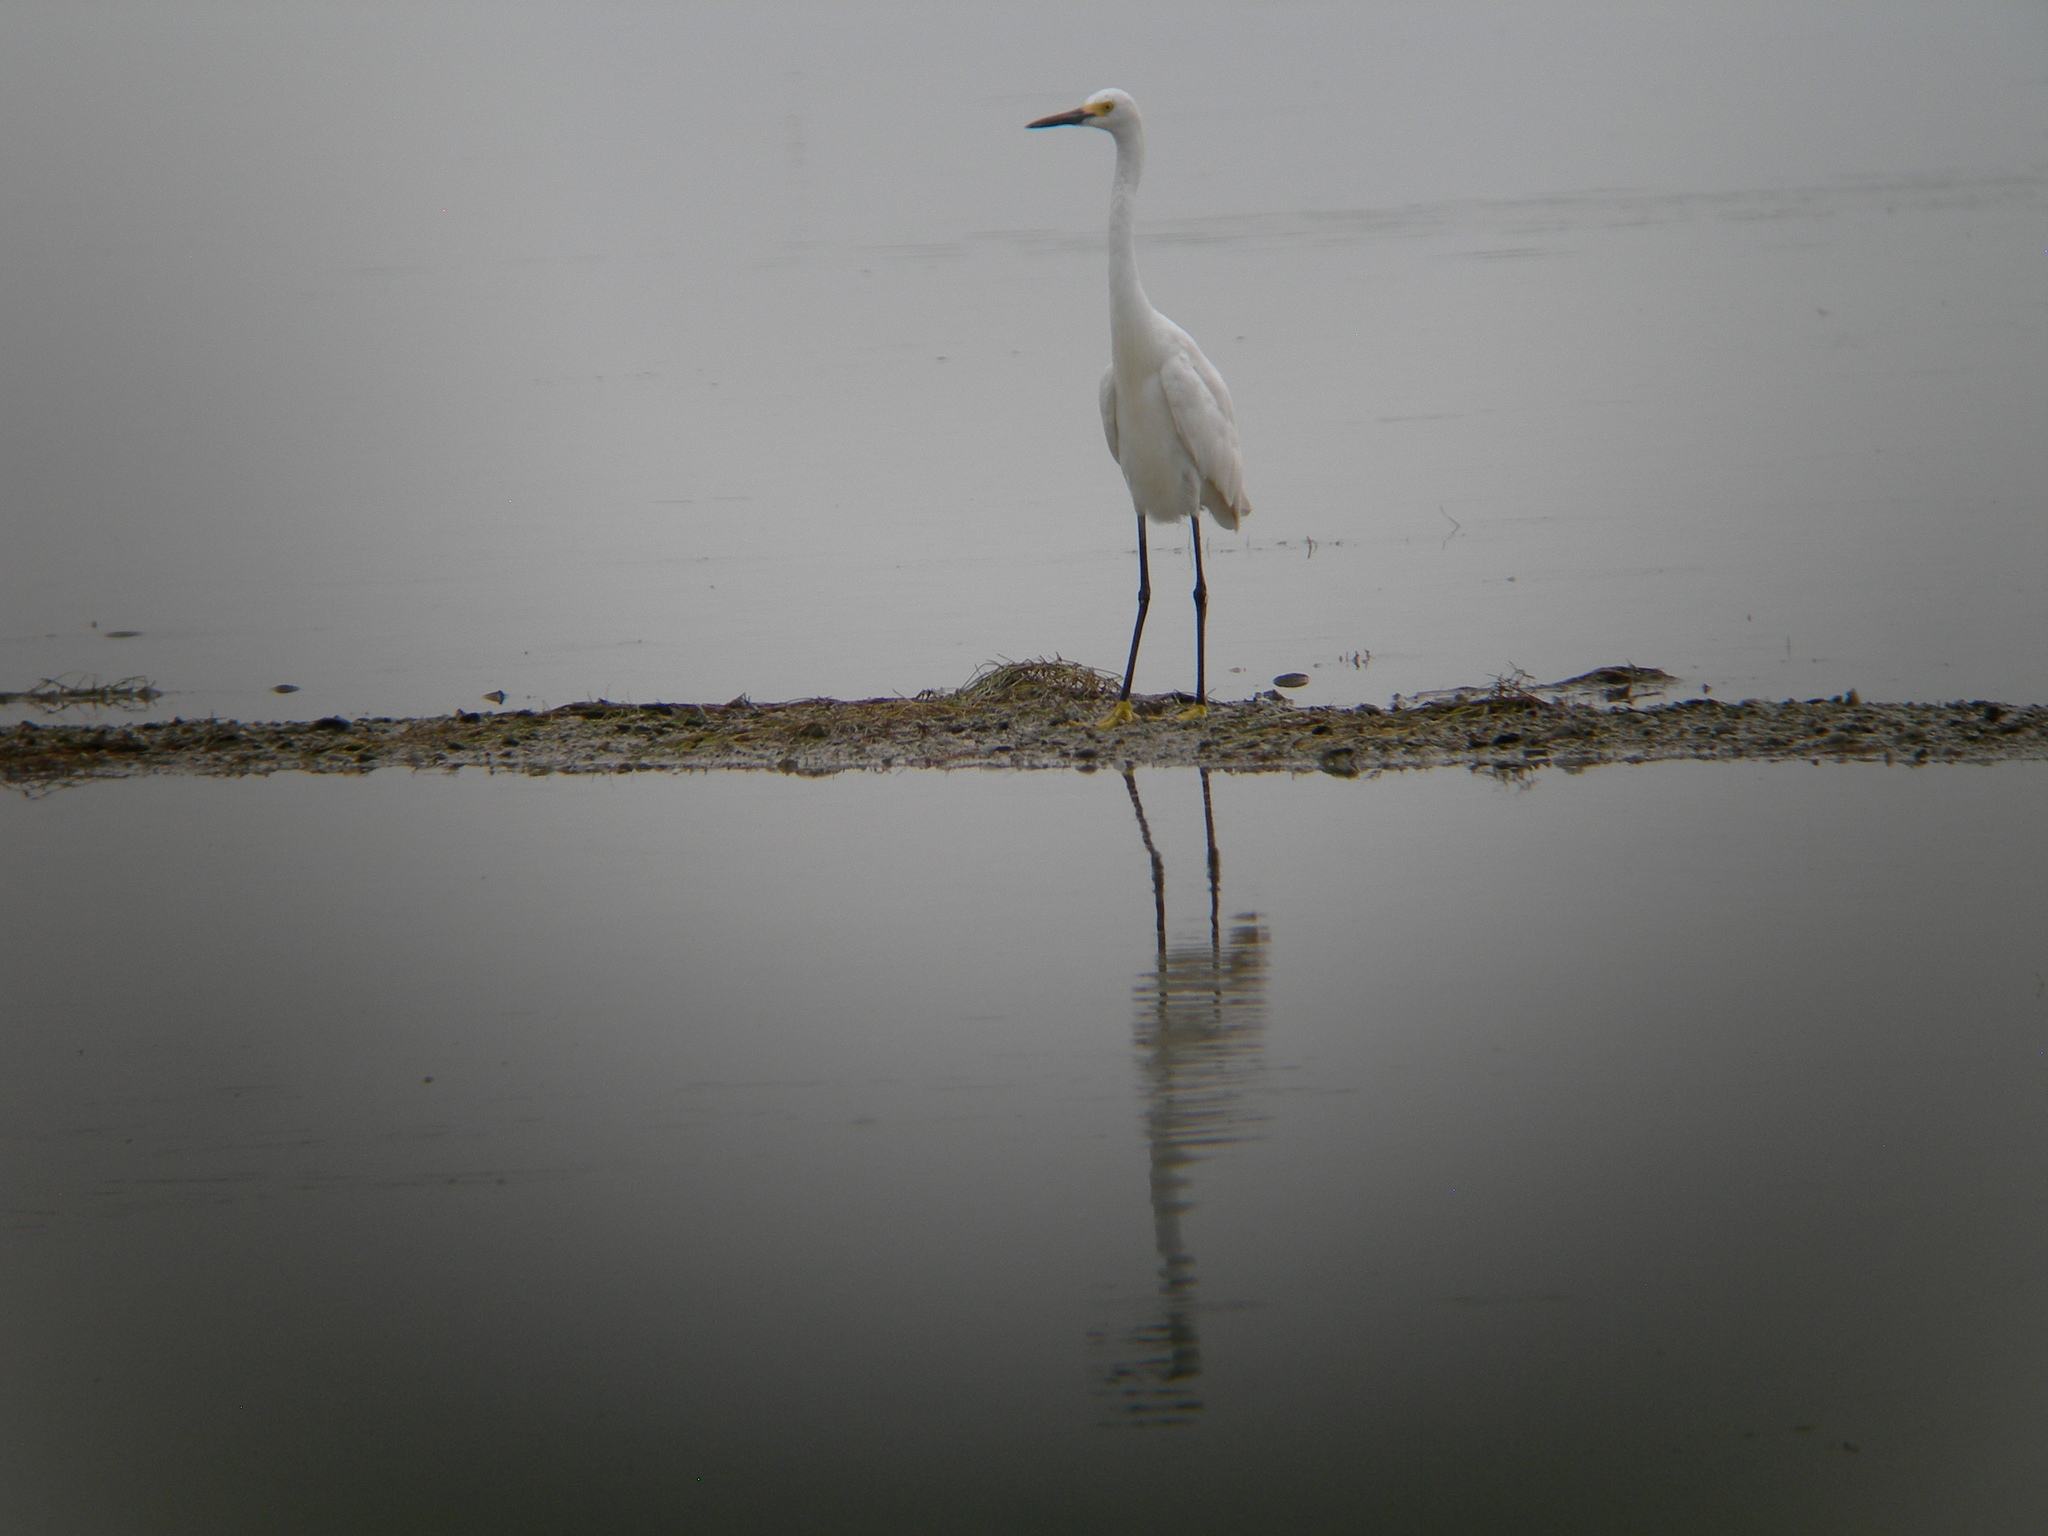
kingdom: Animalia
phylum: Chordata
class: Aves
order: Pelecaniformes
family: Ardeidae
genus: Egretta
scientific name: Egretta thula
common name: Snowy egret
